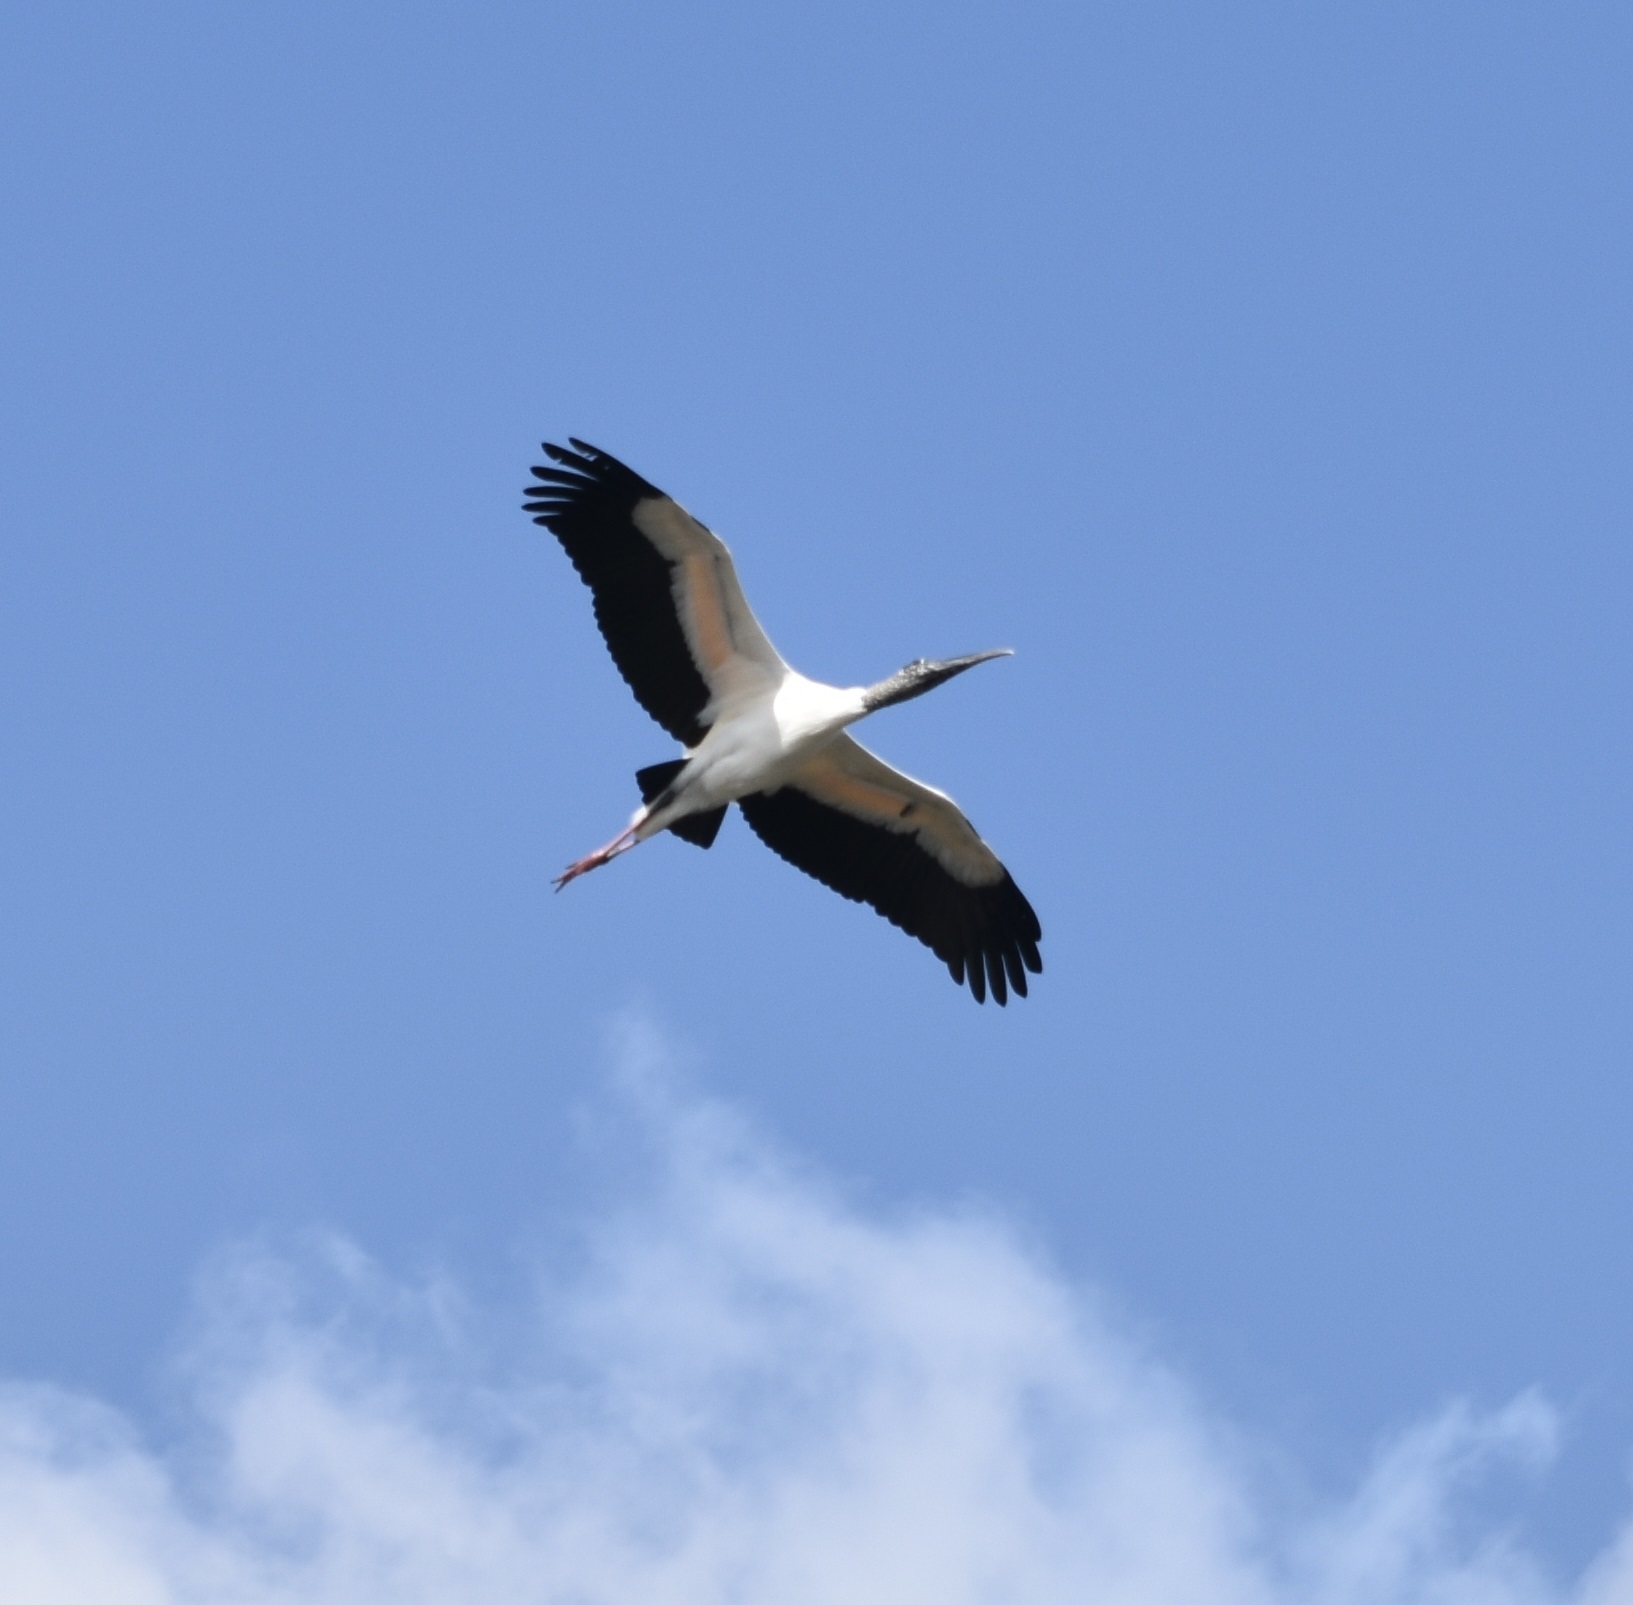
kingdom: Animalia
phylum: Chordata
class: Aves
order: Ciconiiformes
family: Ciconiidae
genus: Mycteria
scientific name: Mycteria americana
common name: Wood stork
